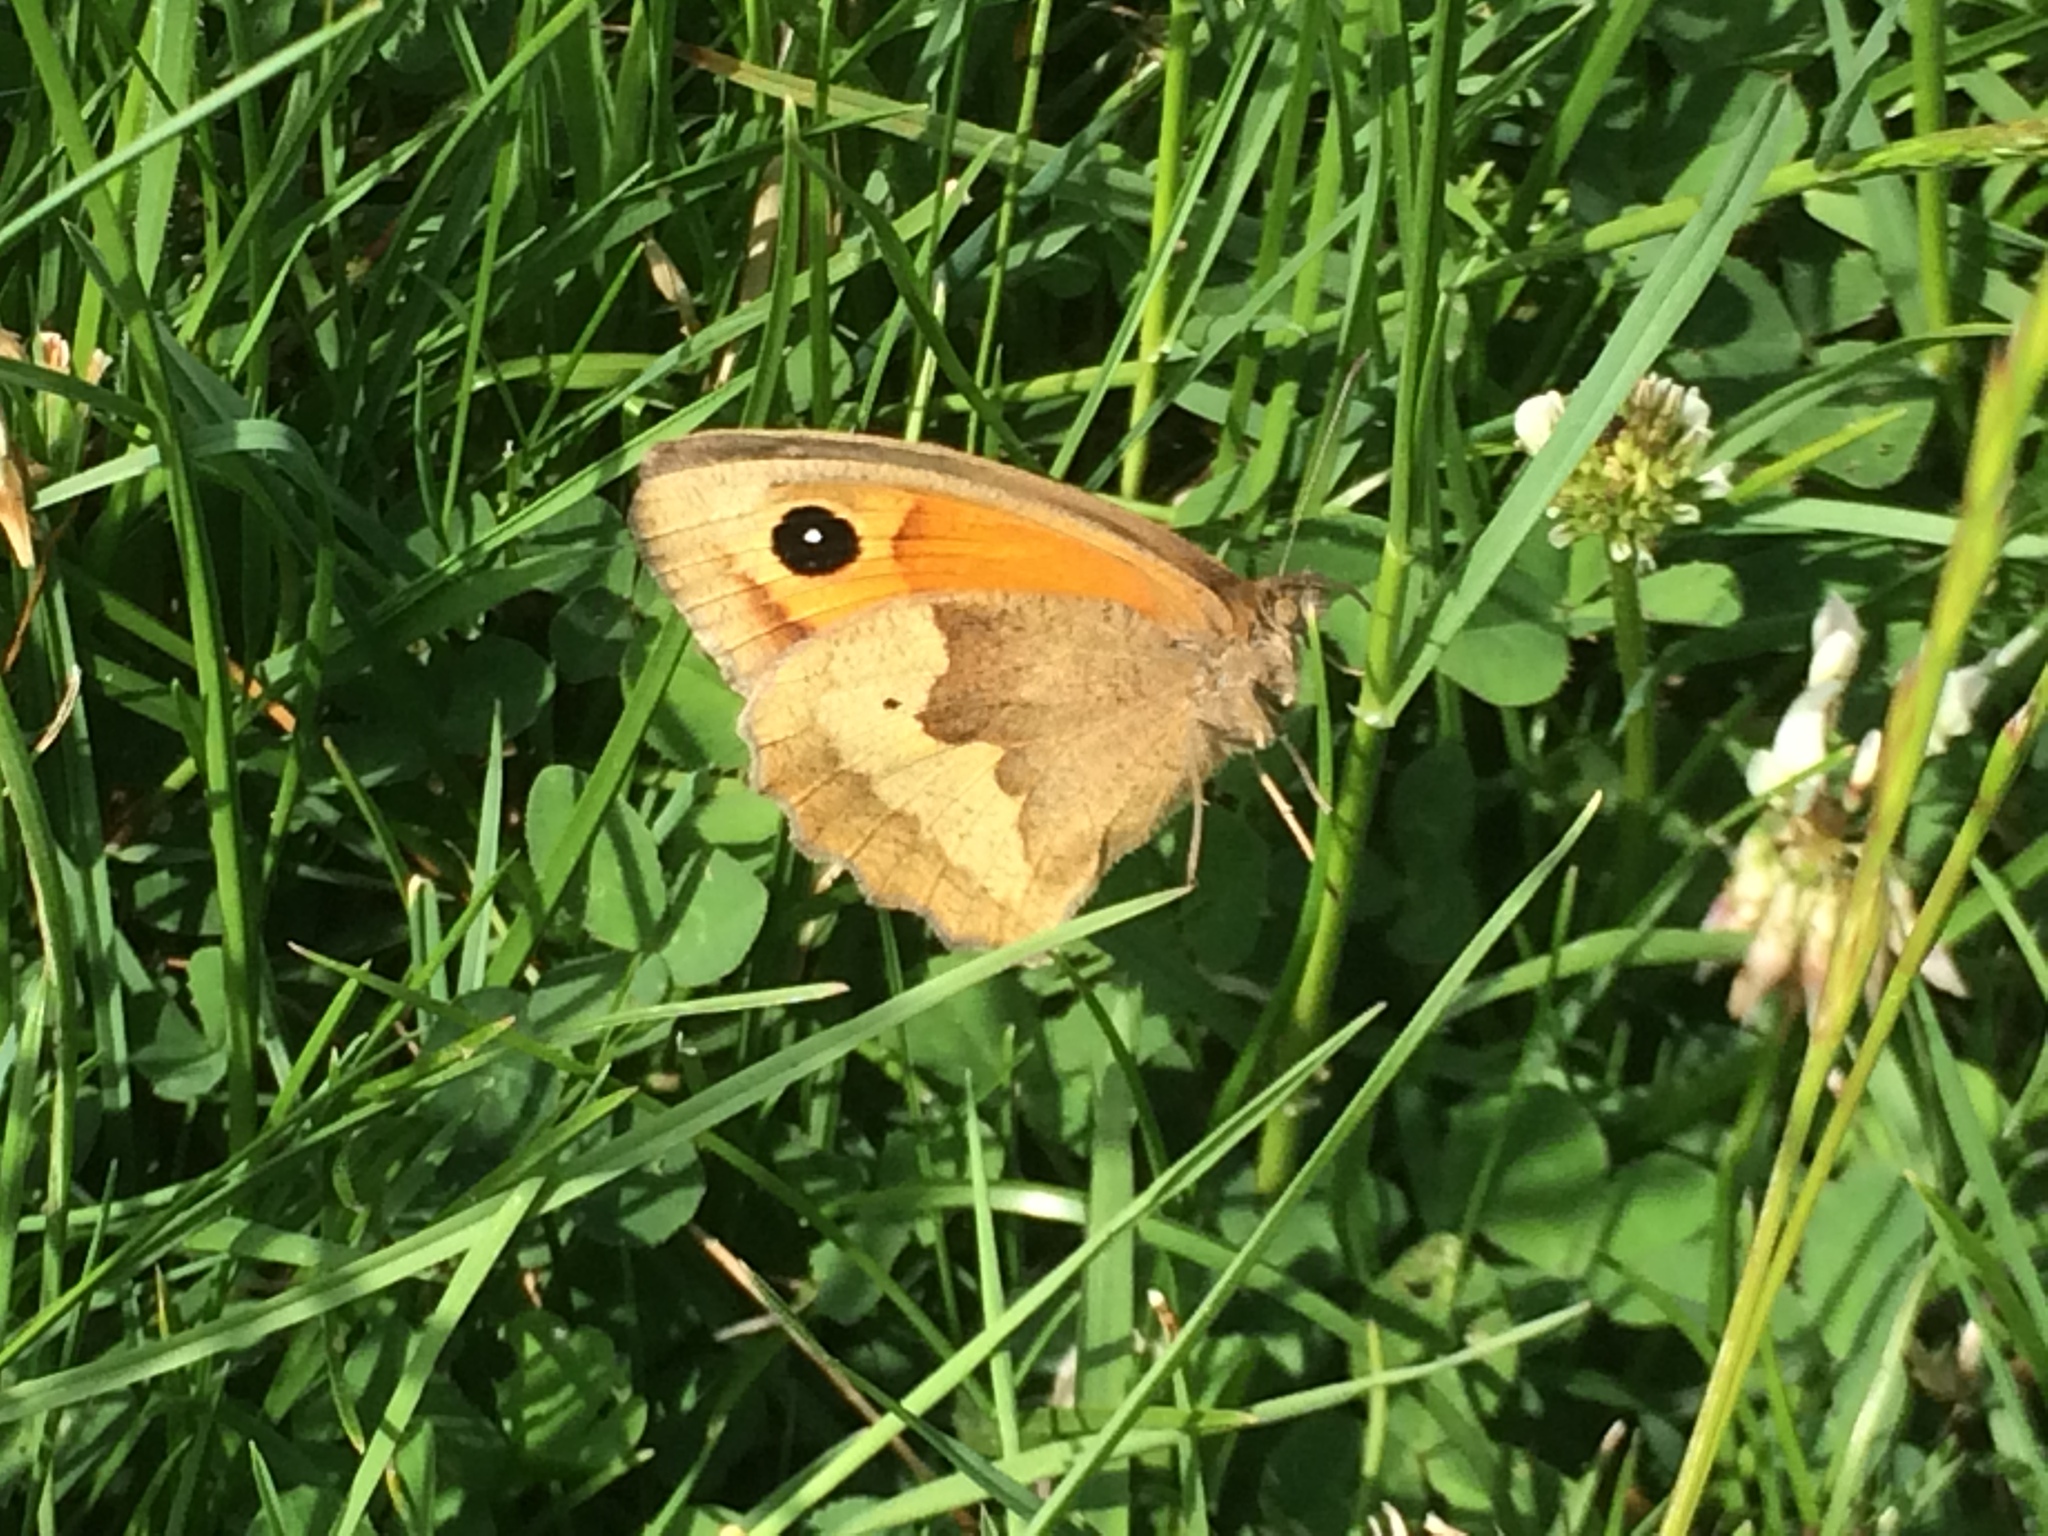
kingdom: Animalia
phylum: Arthropoda
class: Insecta
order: Lepidoptera
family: Nymphalidae
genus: Maniola
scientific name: Maniola jurtina
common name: Meadow brown
